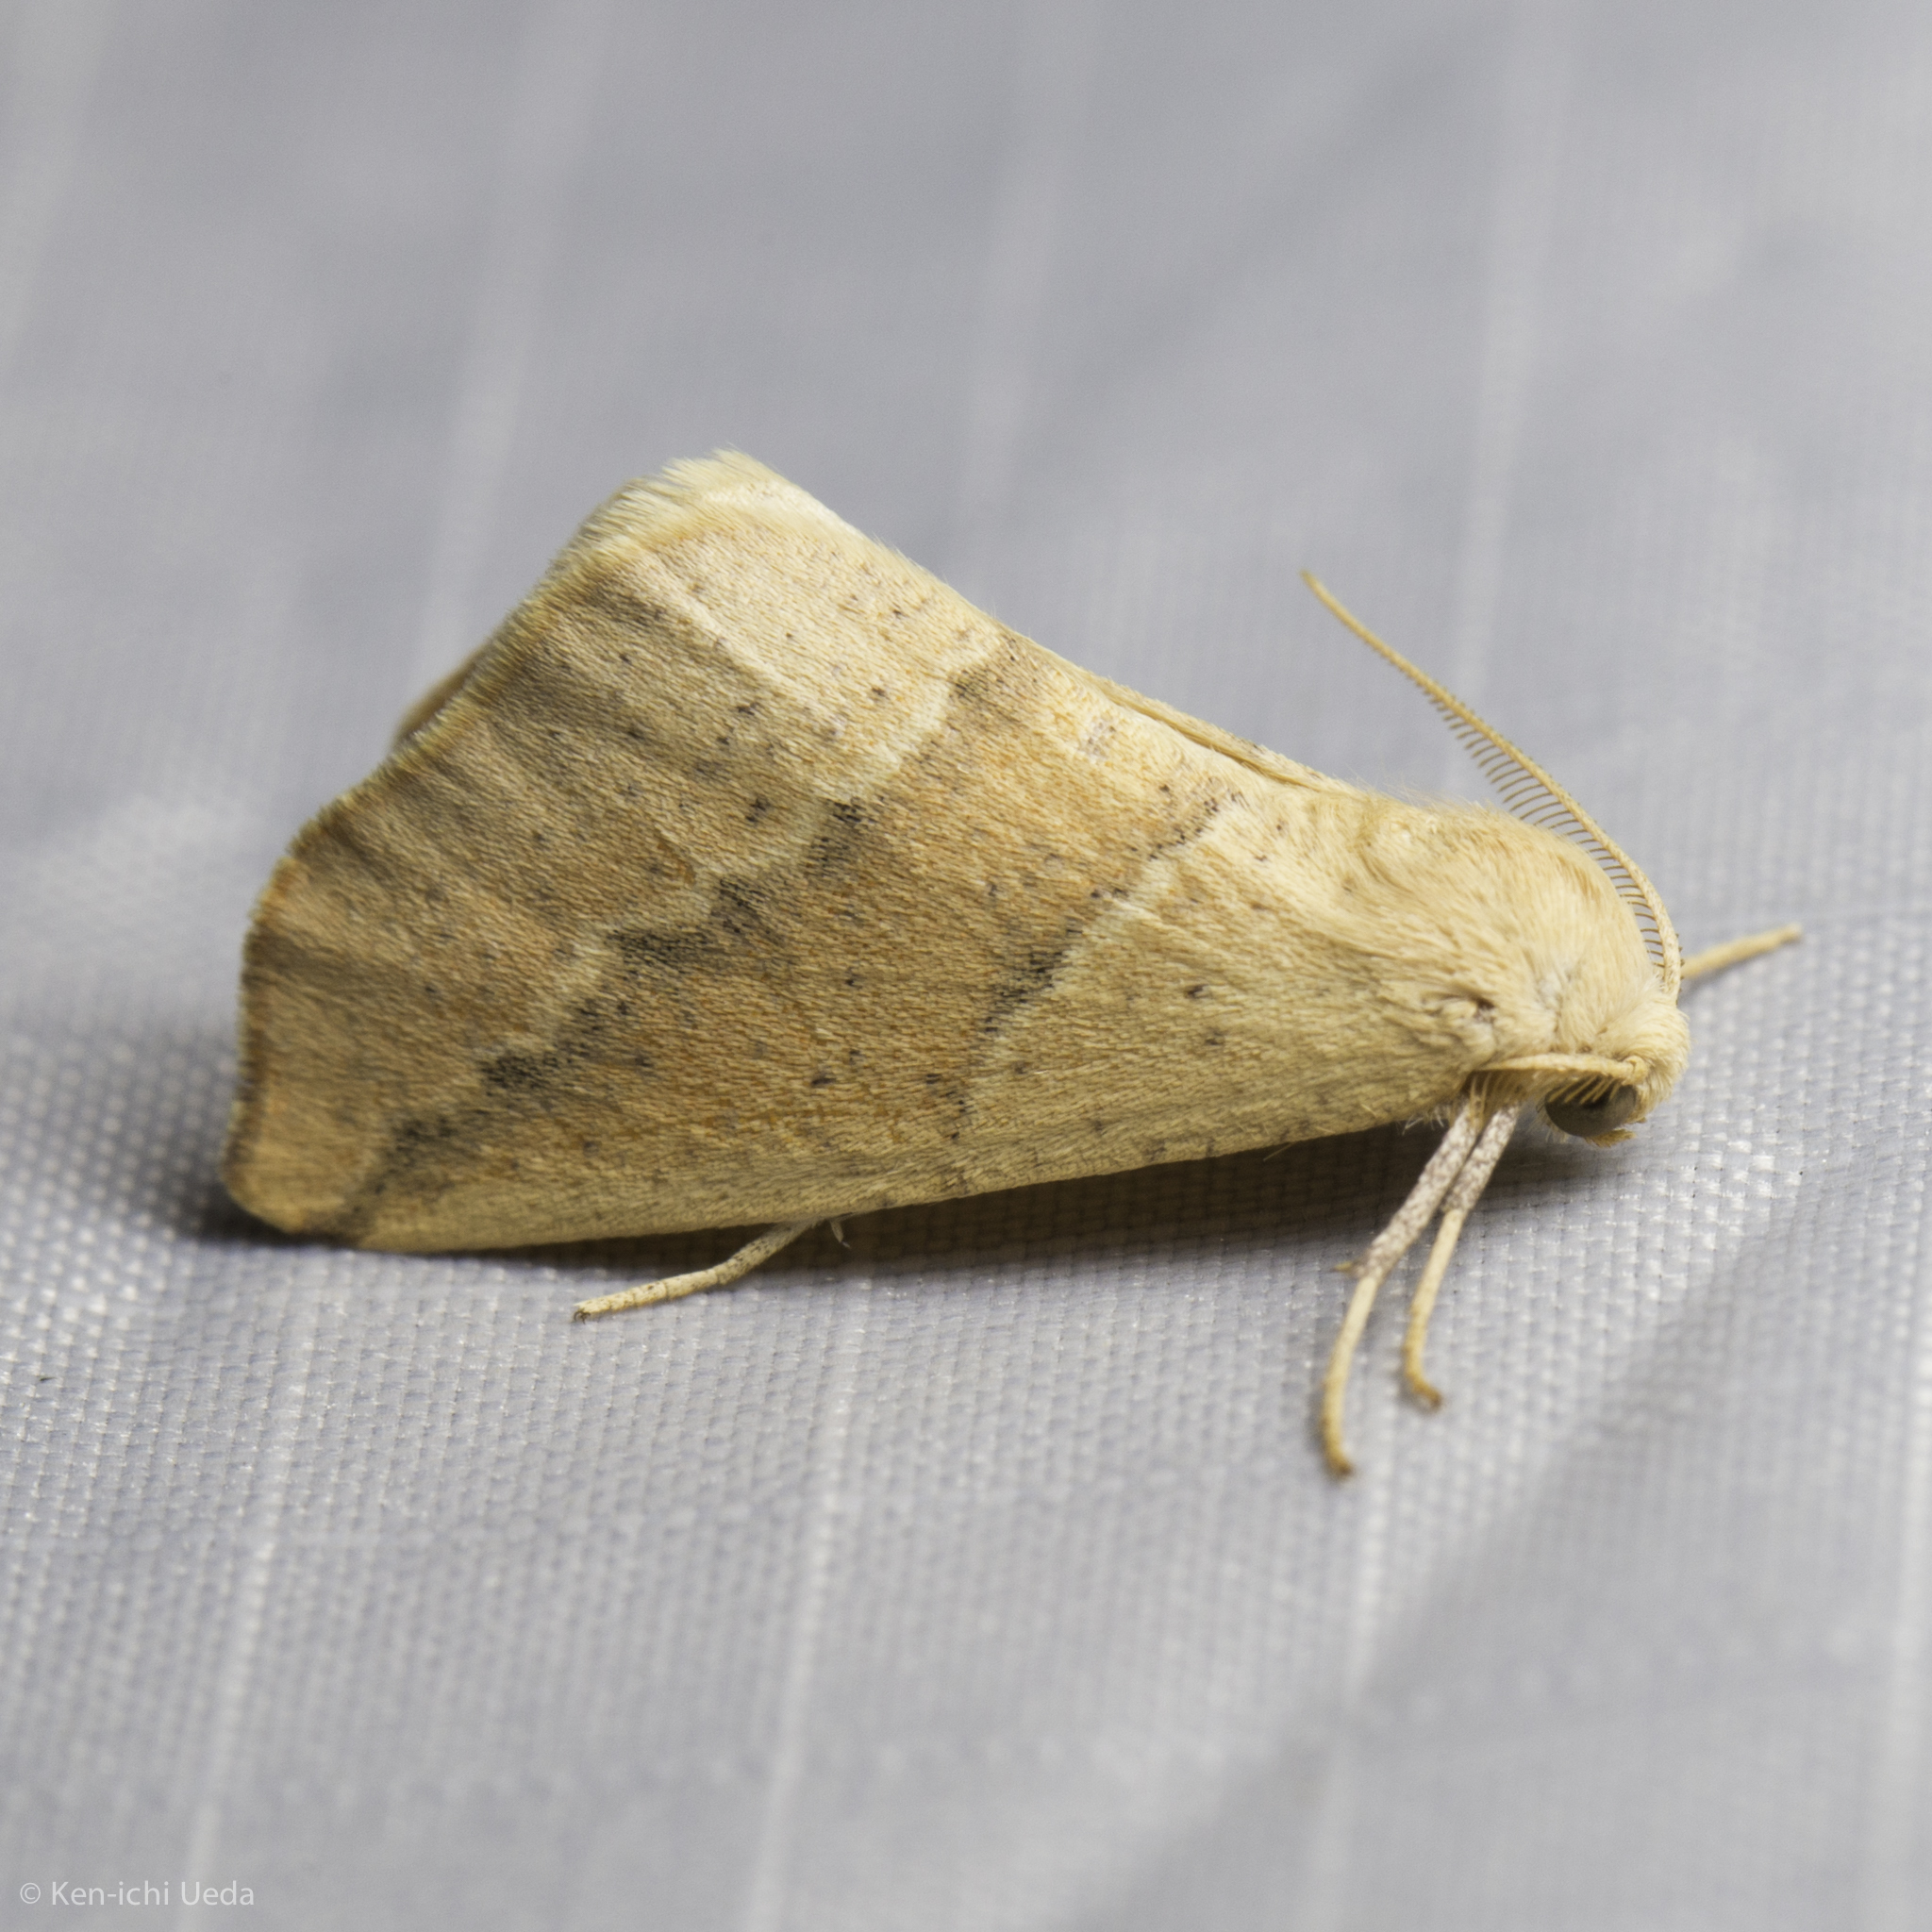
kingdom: Animalia
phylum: Arthropoda
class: Insecta
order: Lepidoptera
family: Geometridae
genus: Sicya
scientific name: Sicya morsicaria
